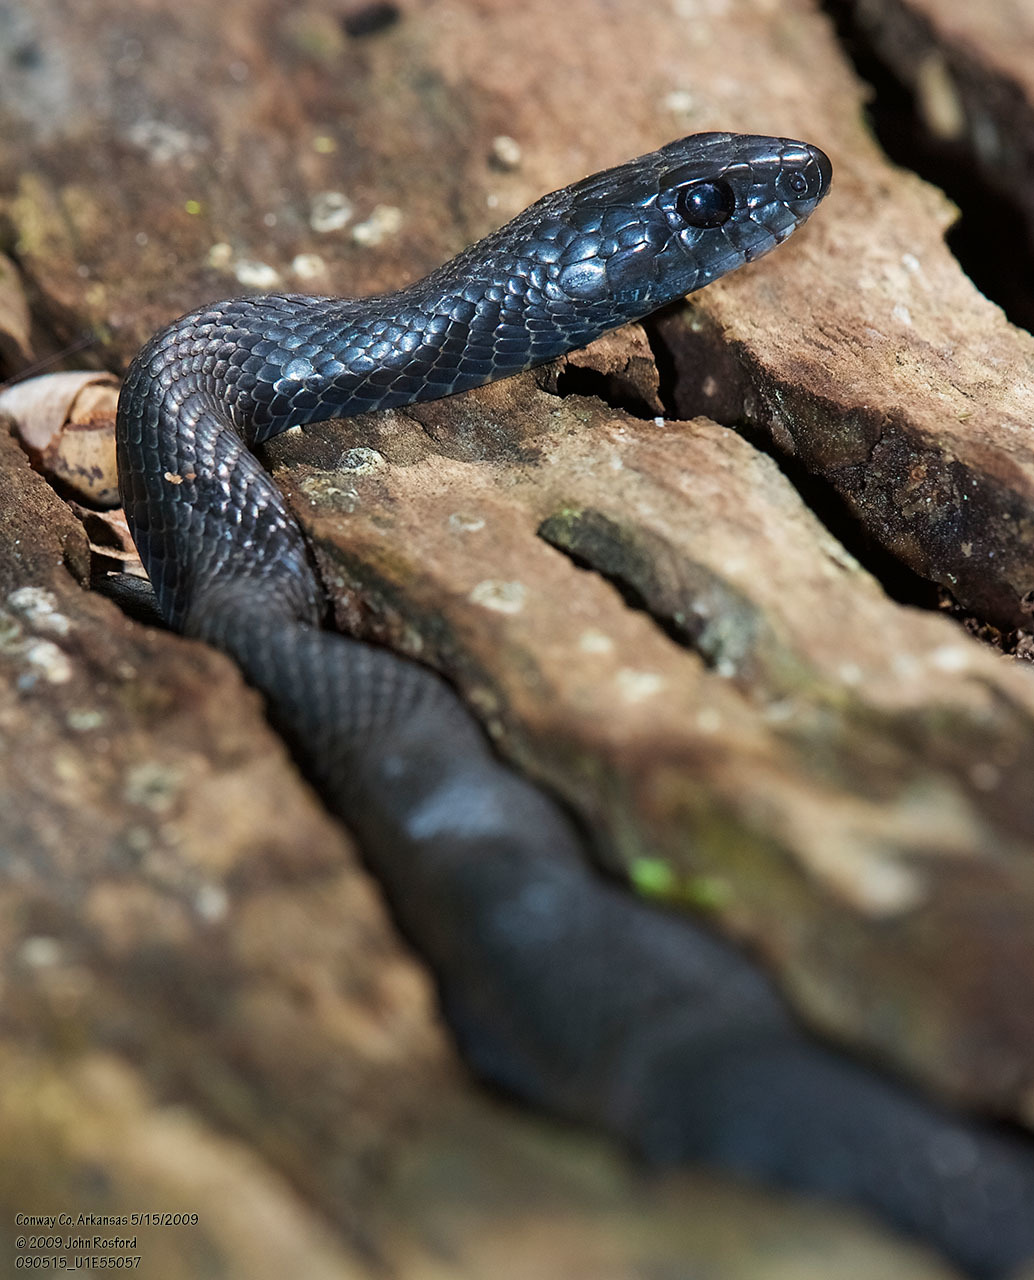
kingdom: Animalia
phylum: Chordata
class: Squamata
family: Colubridae
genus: Coluber
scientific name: Coluber constrictor
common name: Eastern racer
